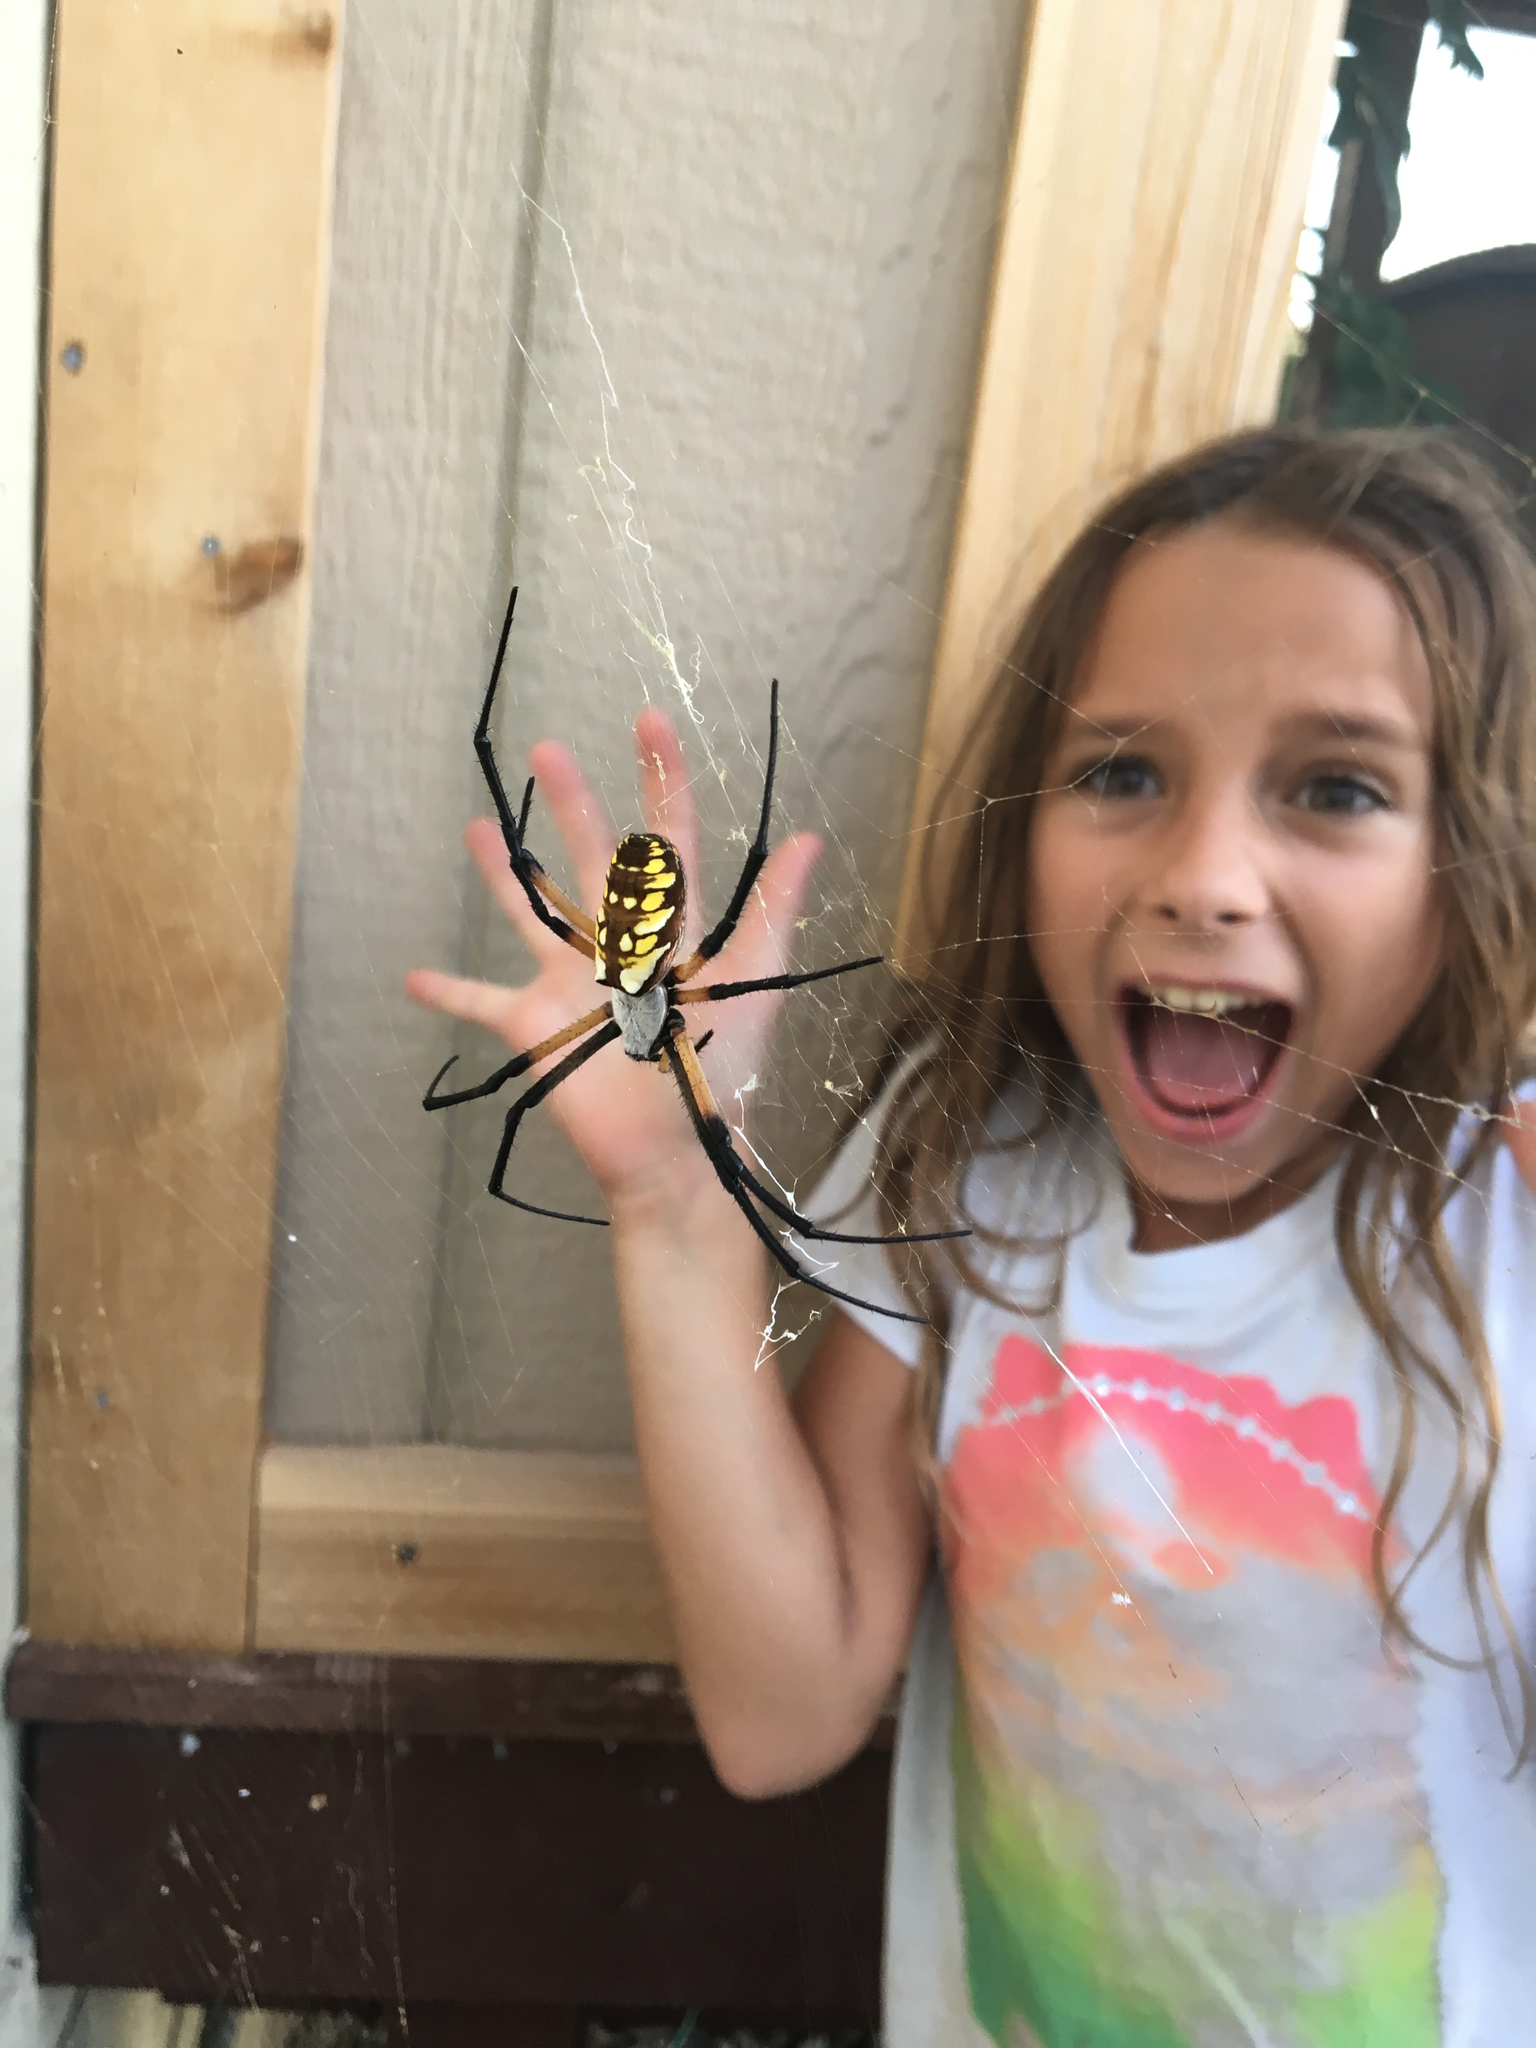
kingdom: Animalia
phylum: Arthropoda
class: Arachnida
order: Araneae
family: Araneidae
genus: Argiope
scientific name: Argiope aurantia
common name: Orb weavers
